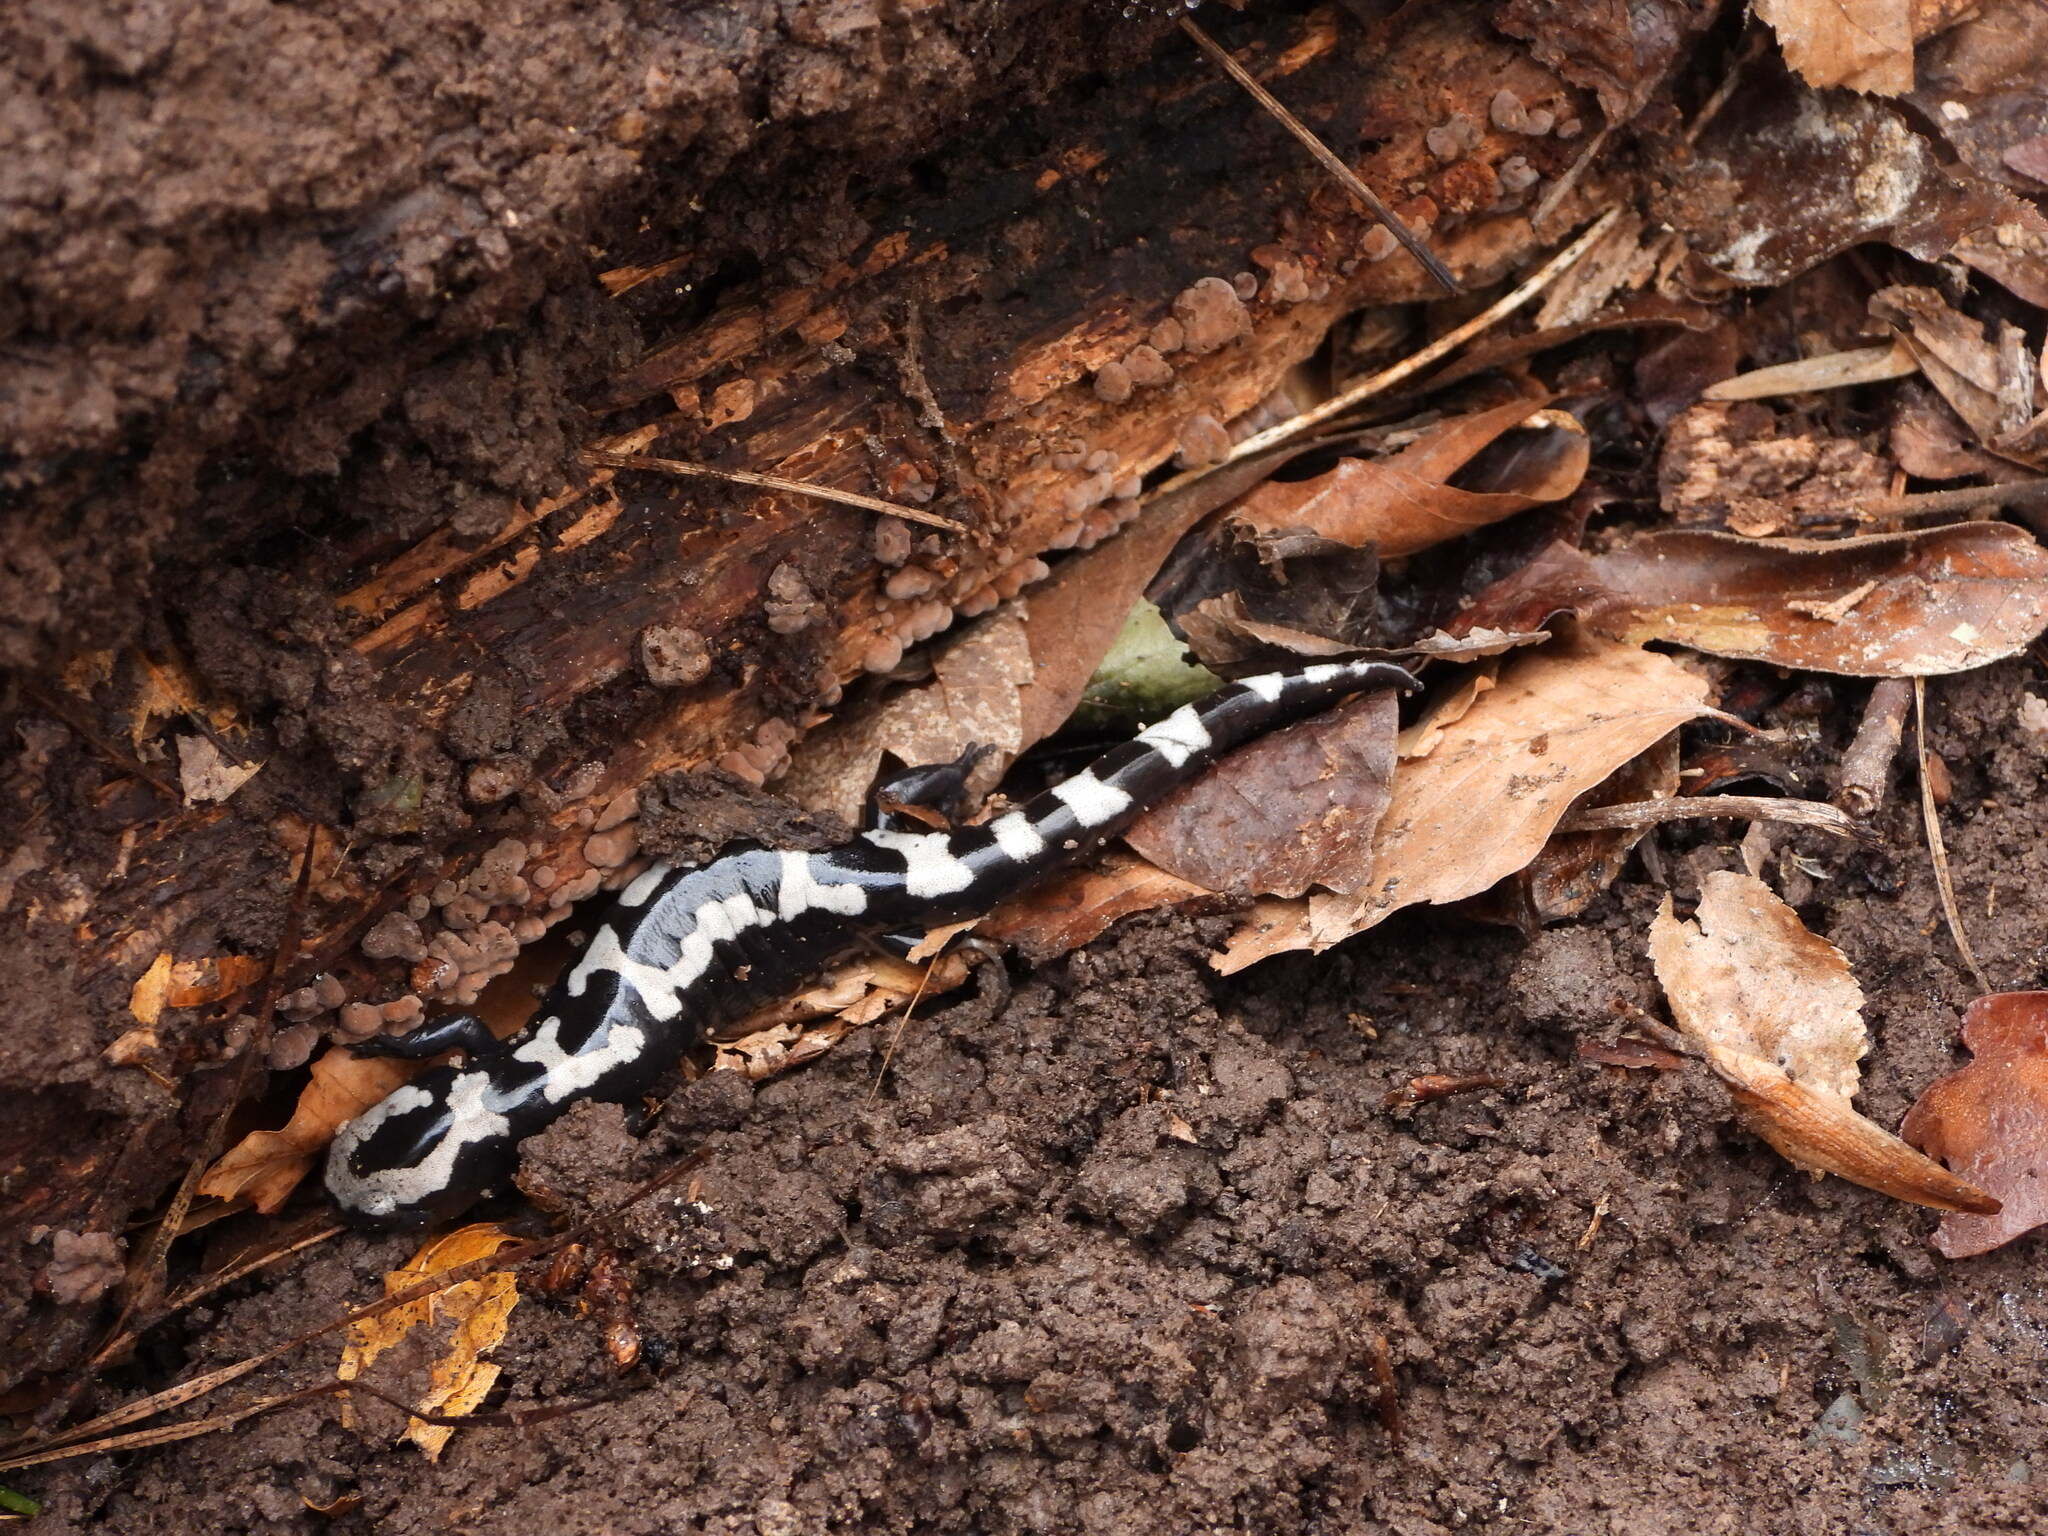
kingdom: Animalia
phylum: Chordata
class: Amphibia
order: Caudata
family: Ambystomatidae
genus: Ambystoma
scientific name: Ambystoma opacum
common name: Marbled salamander
